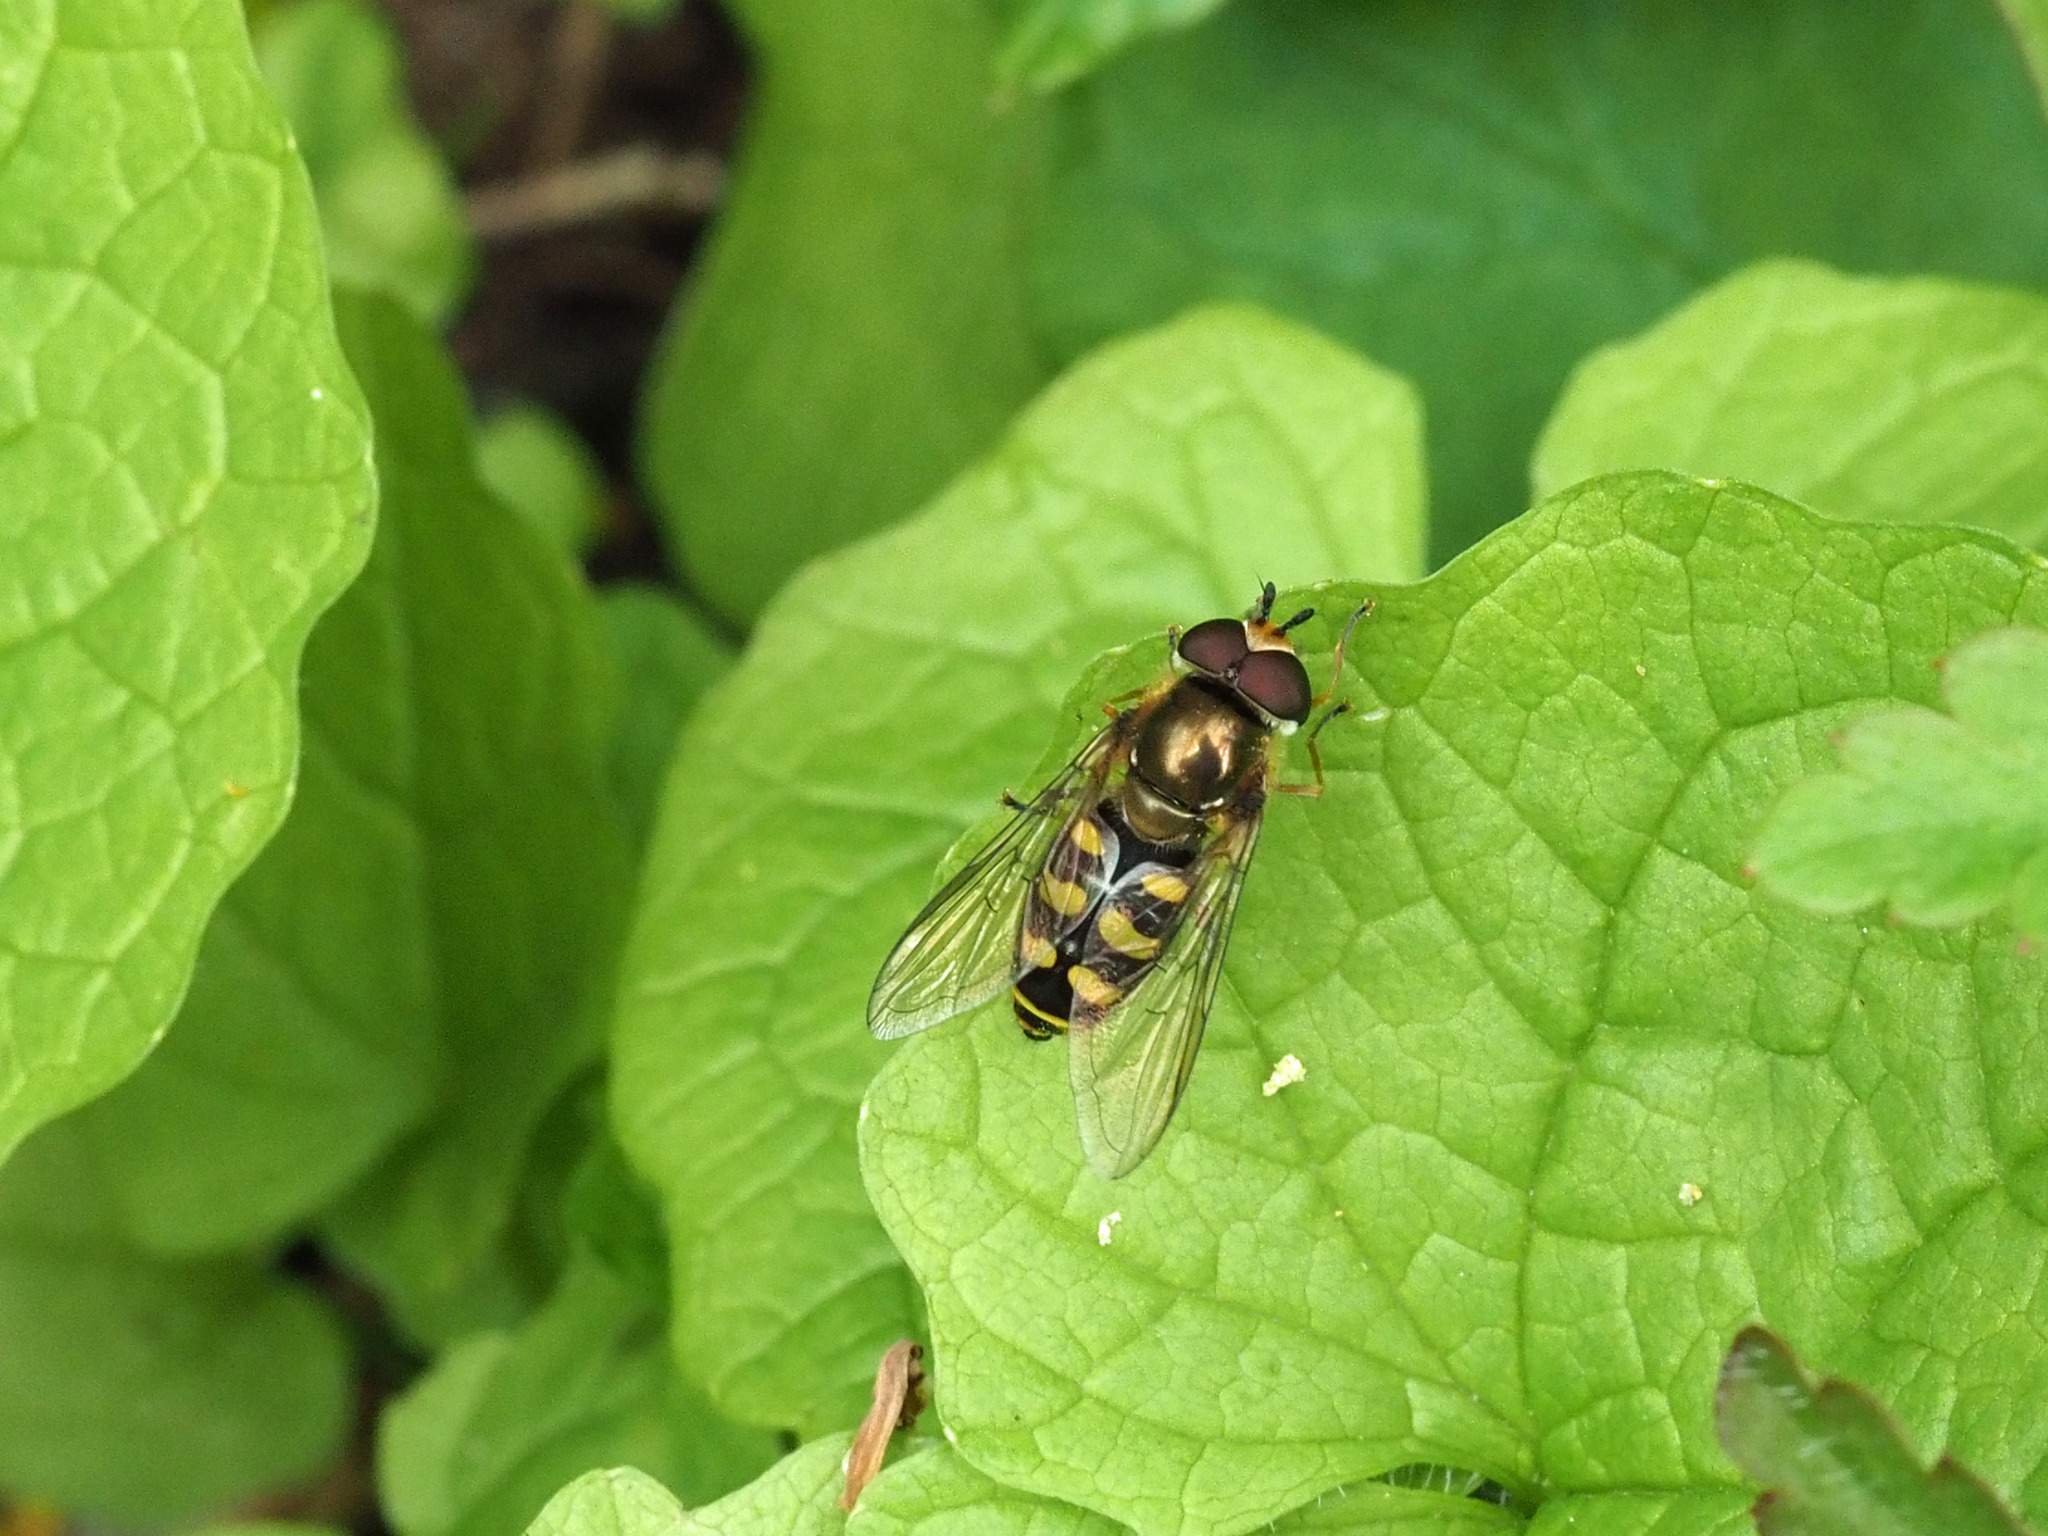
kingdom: Animalia
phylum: Arthropoda
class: Insecta
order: Diptera
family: Syrphidae
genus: Eupeodes
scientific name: Eupeodes
